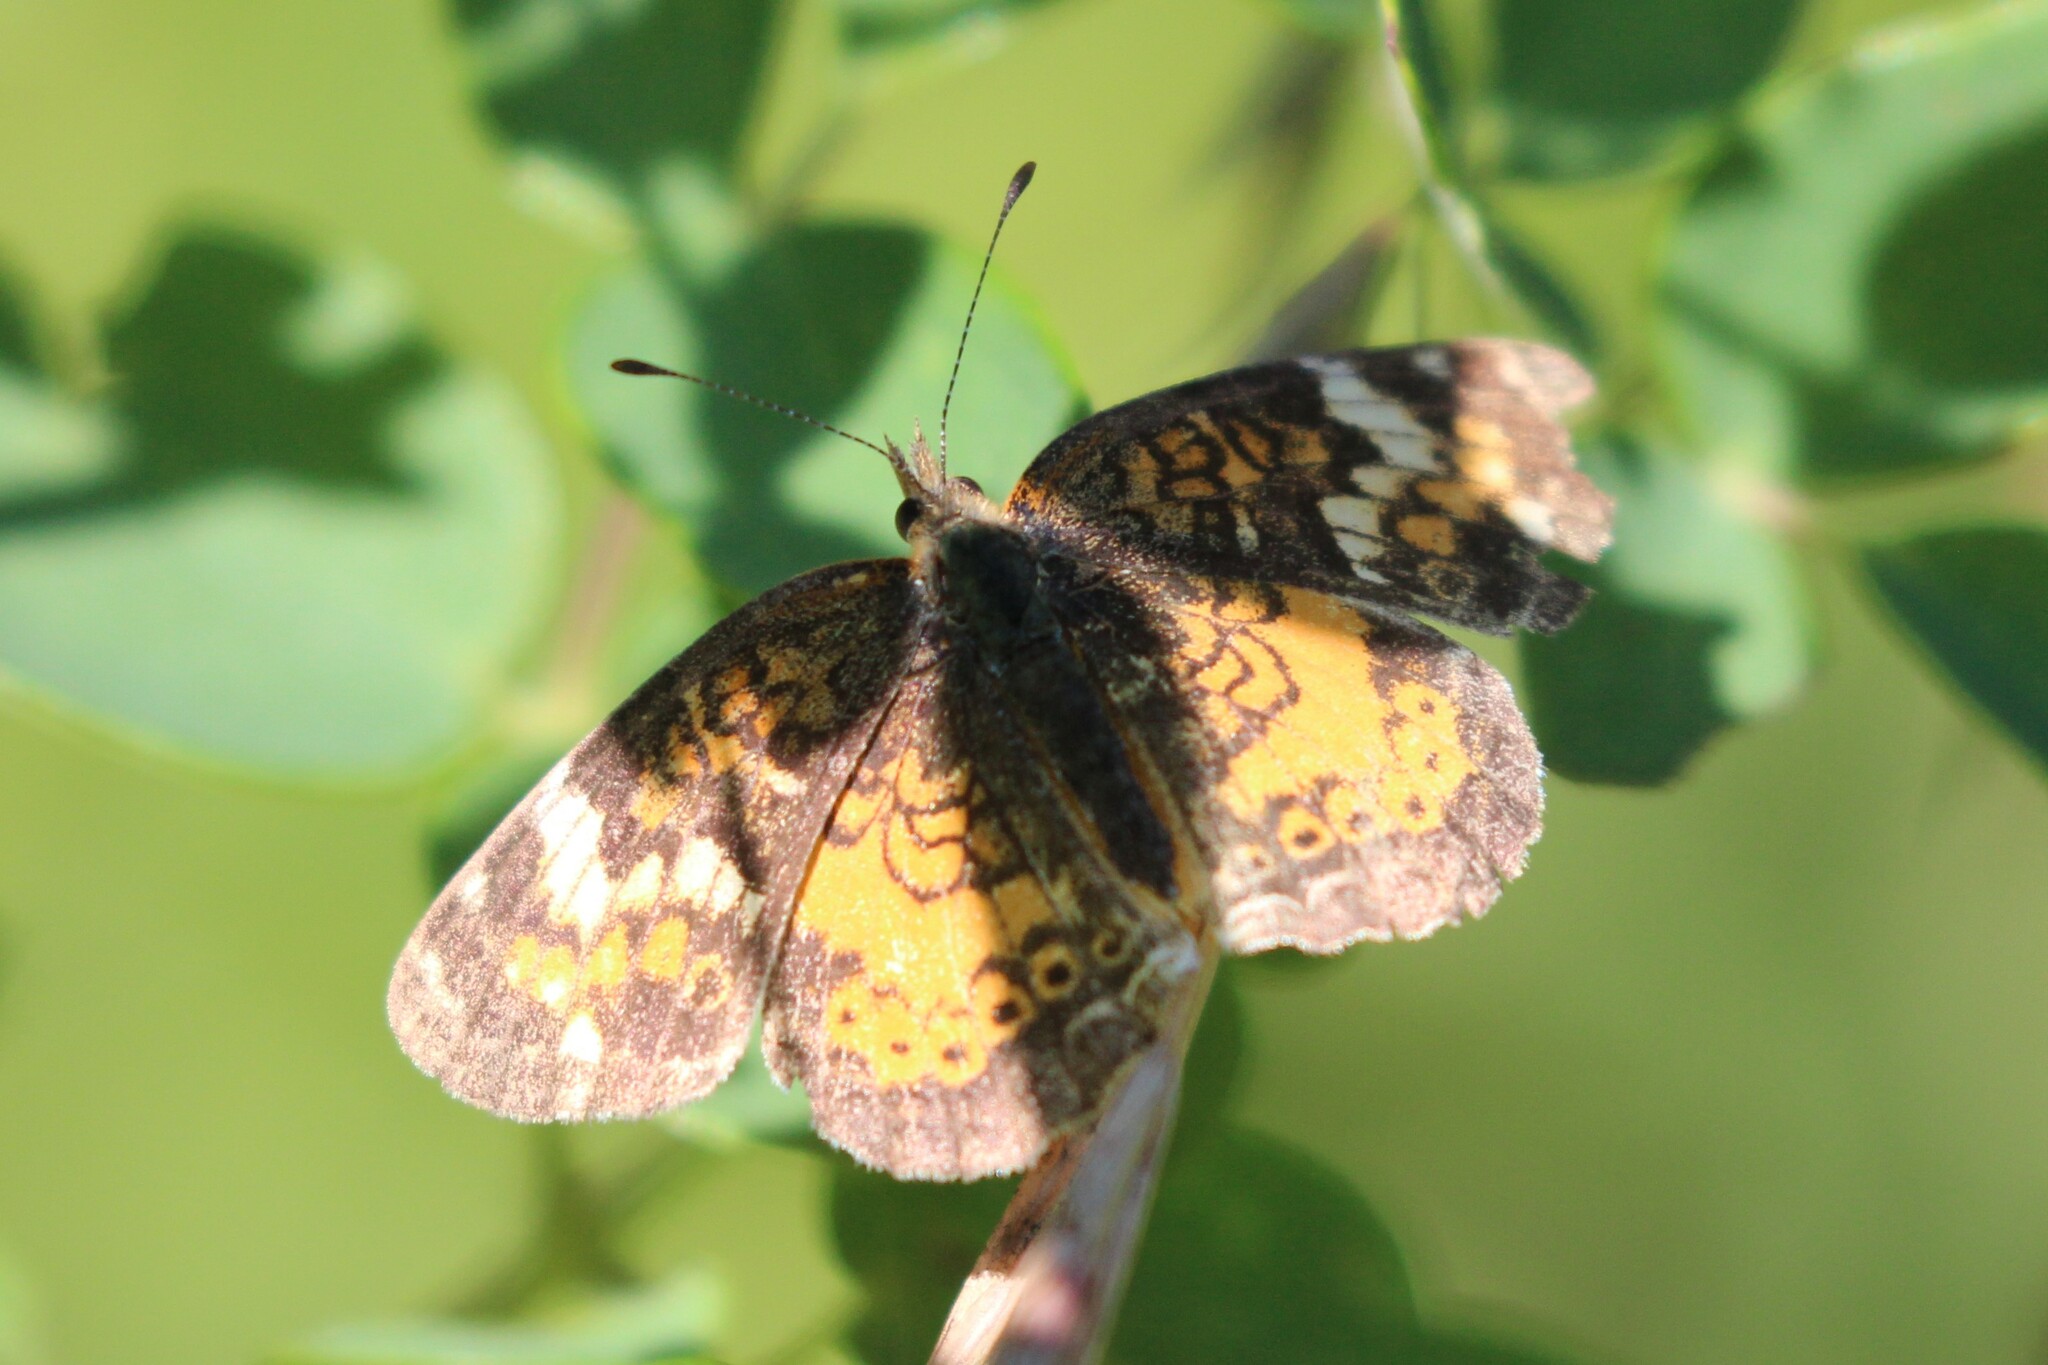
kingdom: Animalia
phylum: Arthropoda
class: Insecta
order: Lepidoptera
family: Nymphalidae
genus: Phyciodes
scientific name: Phyciodes tharos
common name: Pearl crescent
